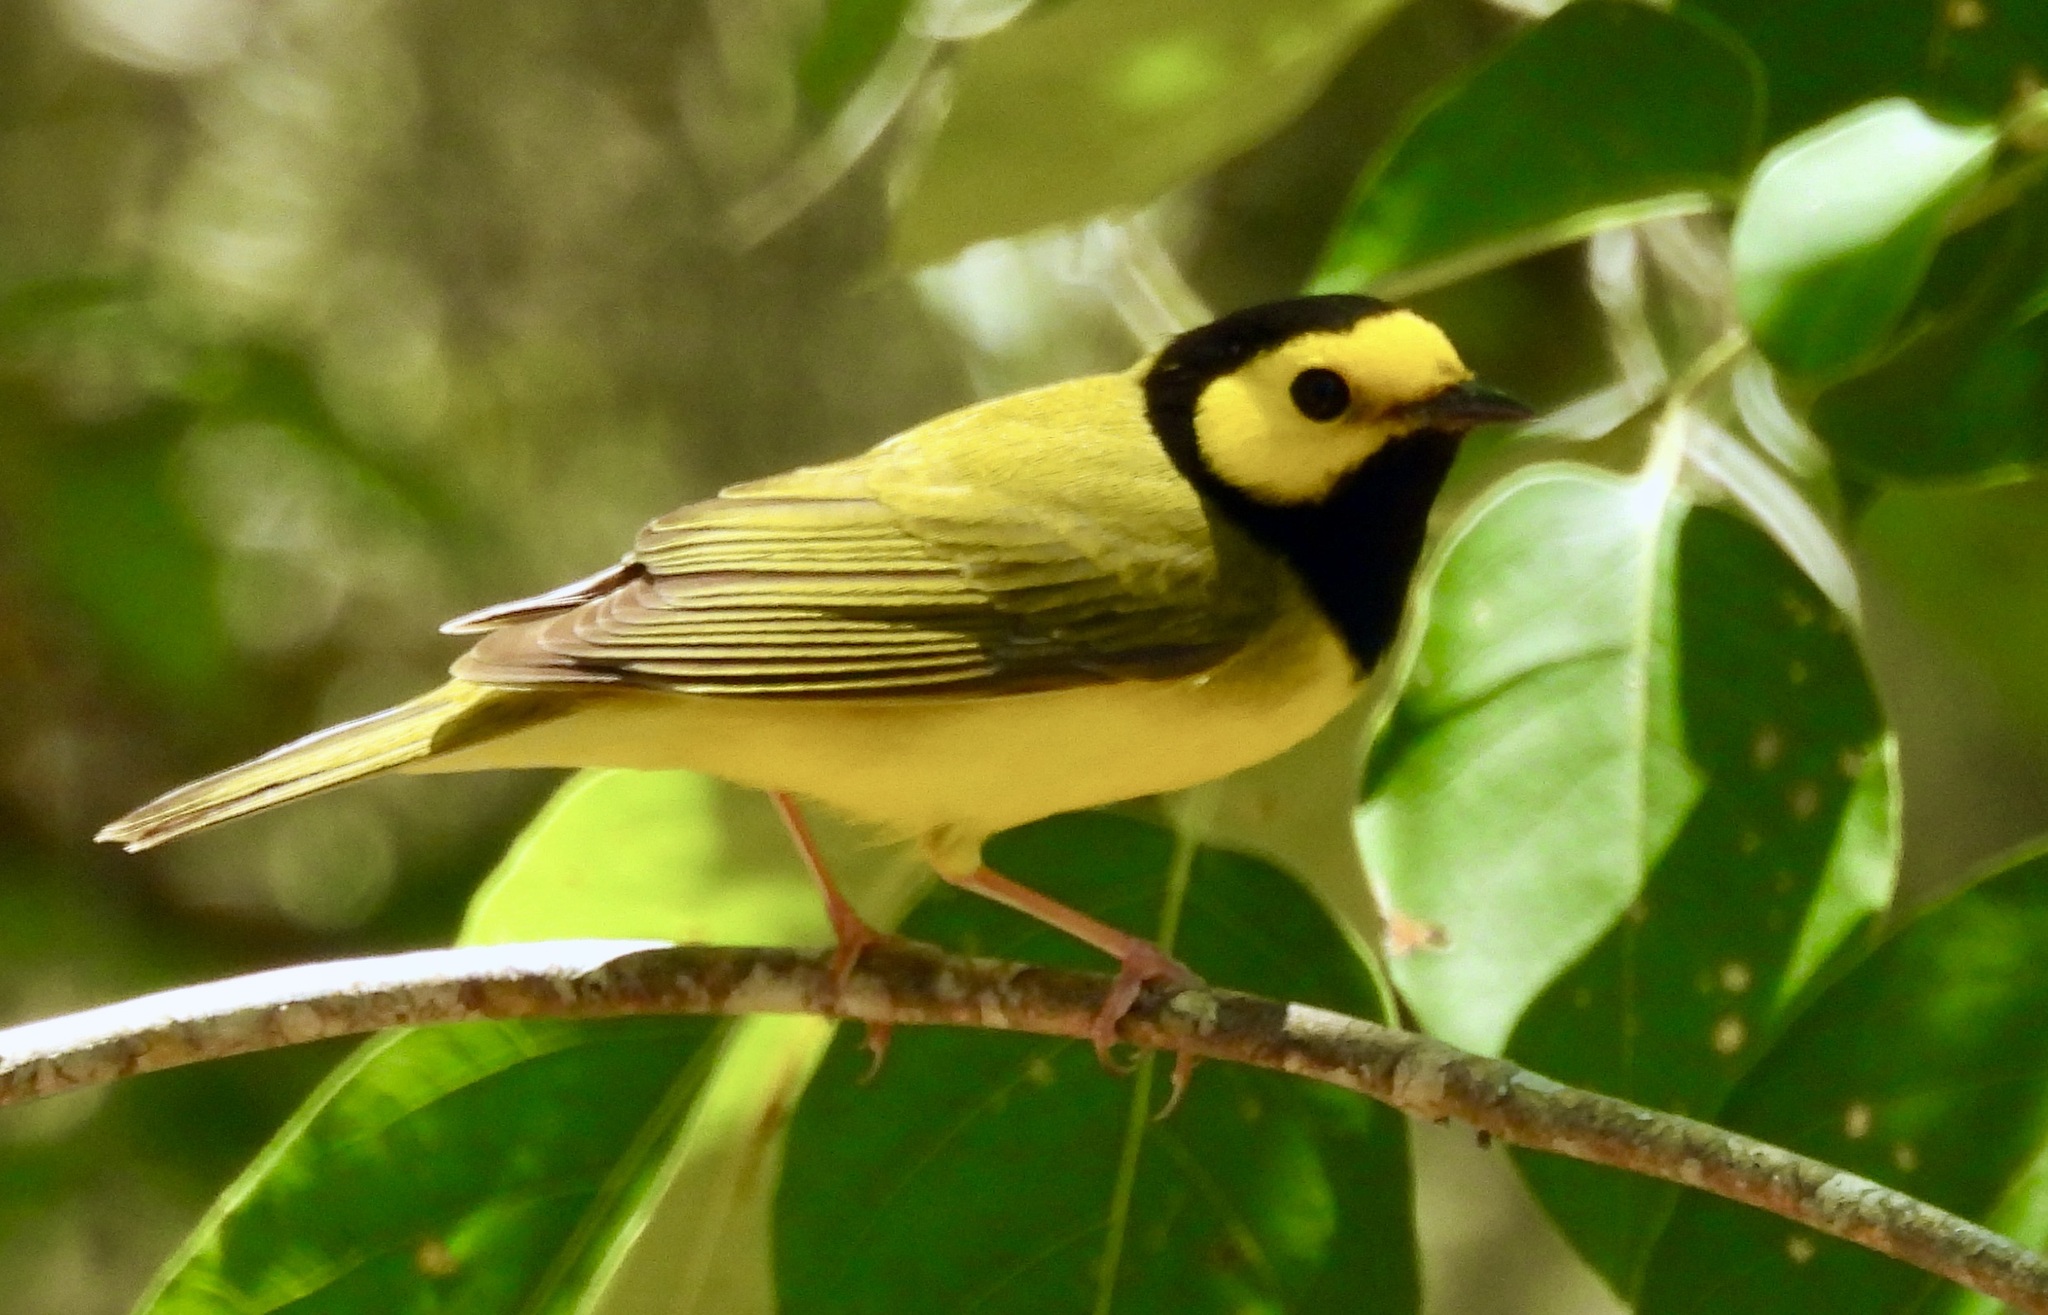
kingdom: Animalia
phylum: Chordata
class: Aves
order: Passeriformes
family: Parulidae
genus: Setophaga
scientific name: Setophaga citrina
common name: Hooded warbler
